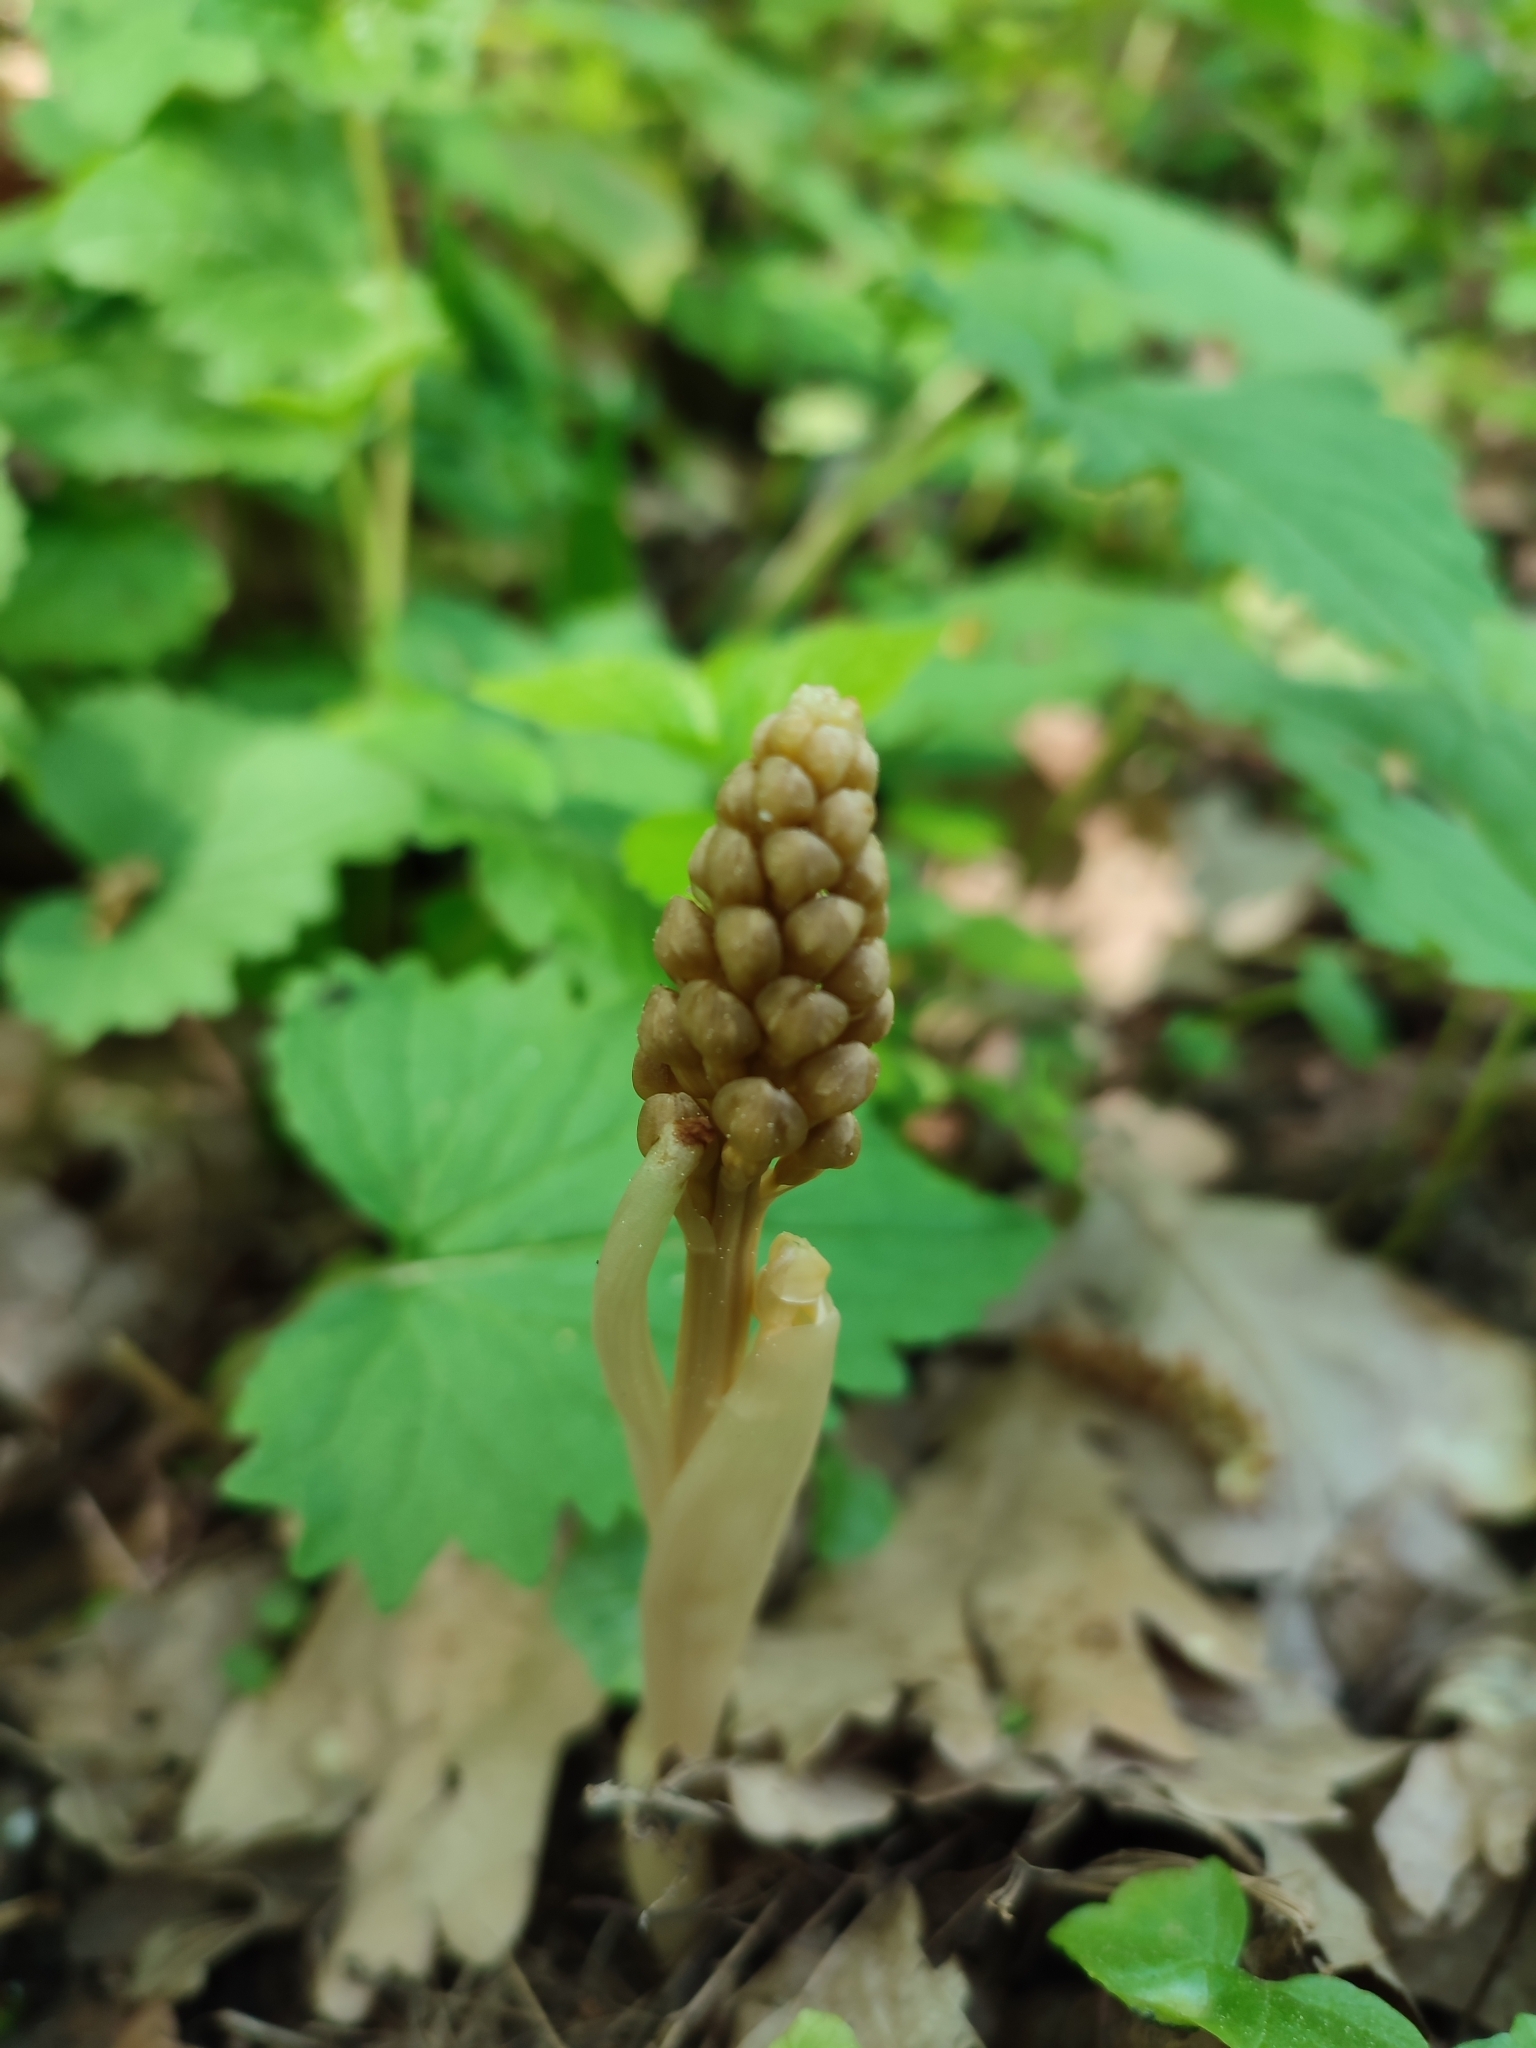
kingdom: Plantae
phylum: Tracheophyta
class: Liliopsida
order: Asparagales
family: Orchidaceae
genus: Neottia
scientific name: Neottia nidus-avis
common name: Bird's-nest orchid
